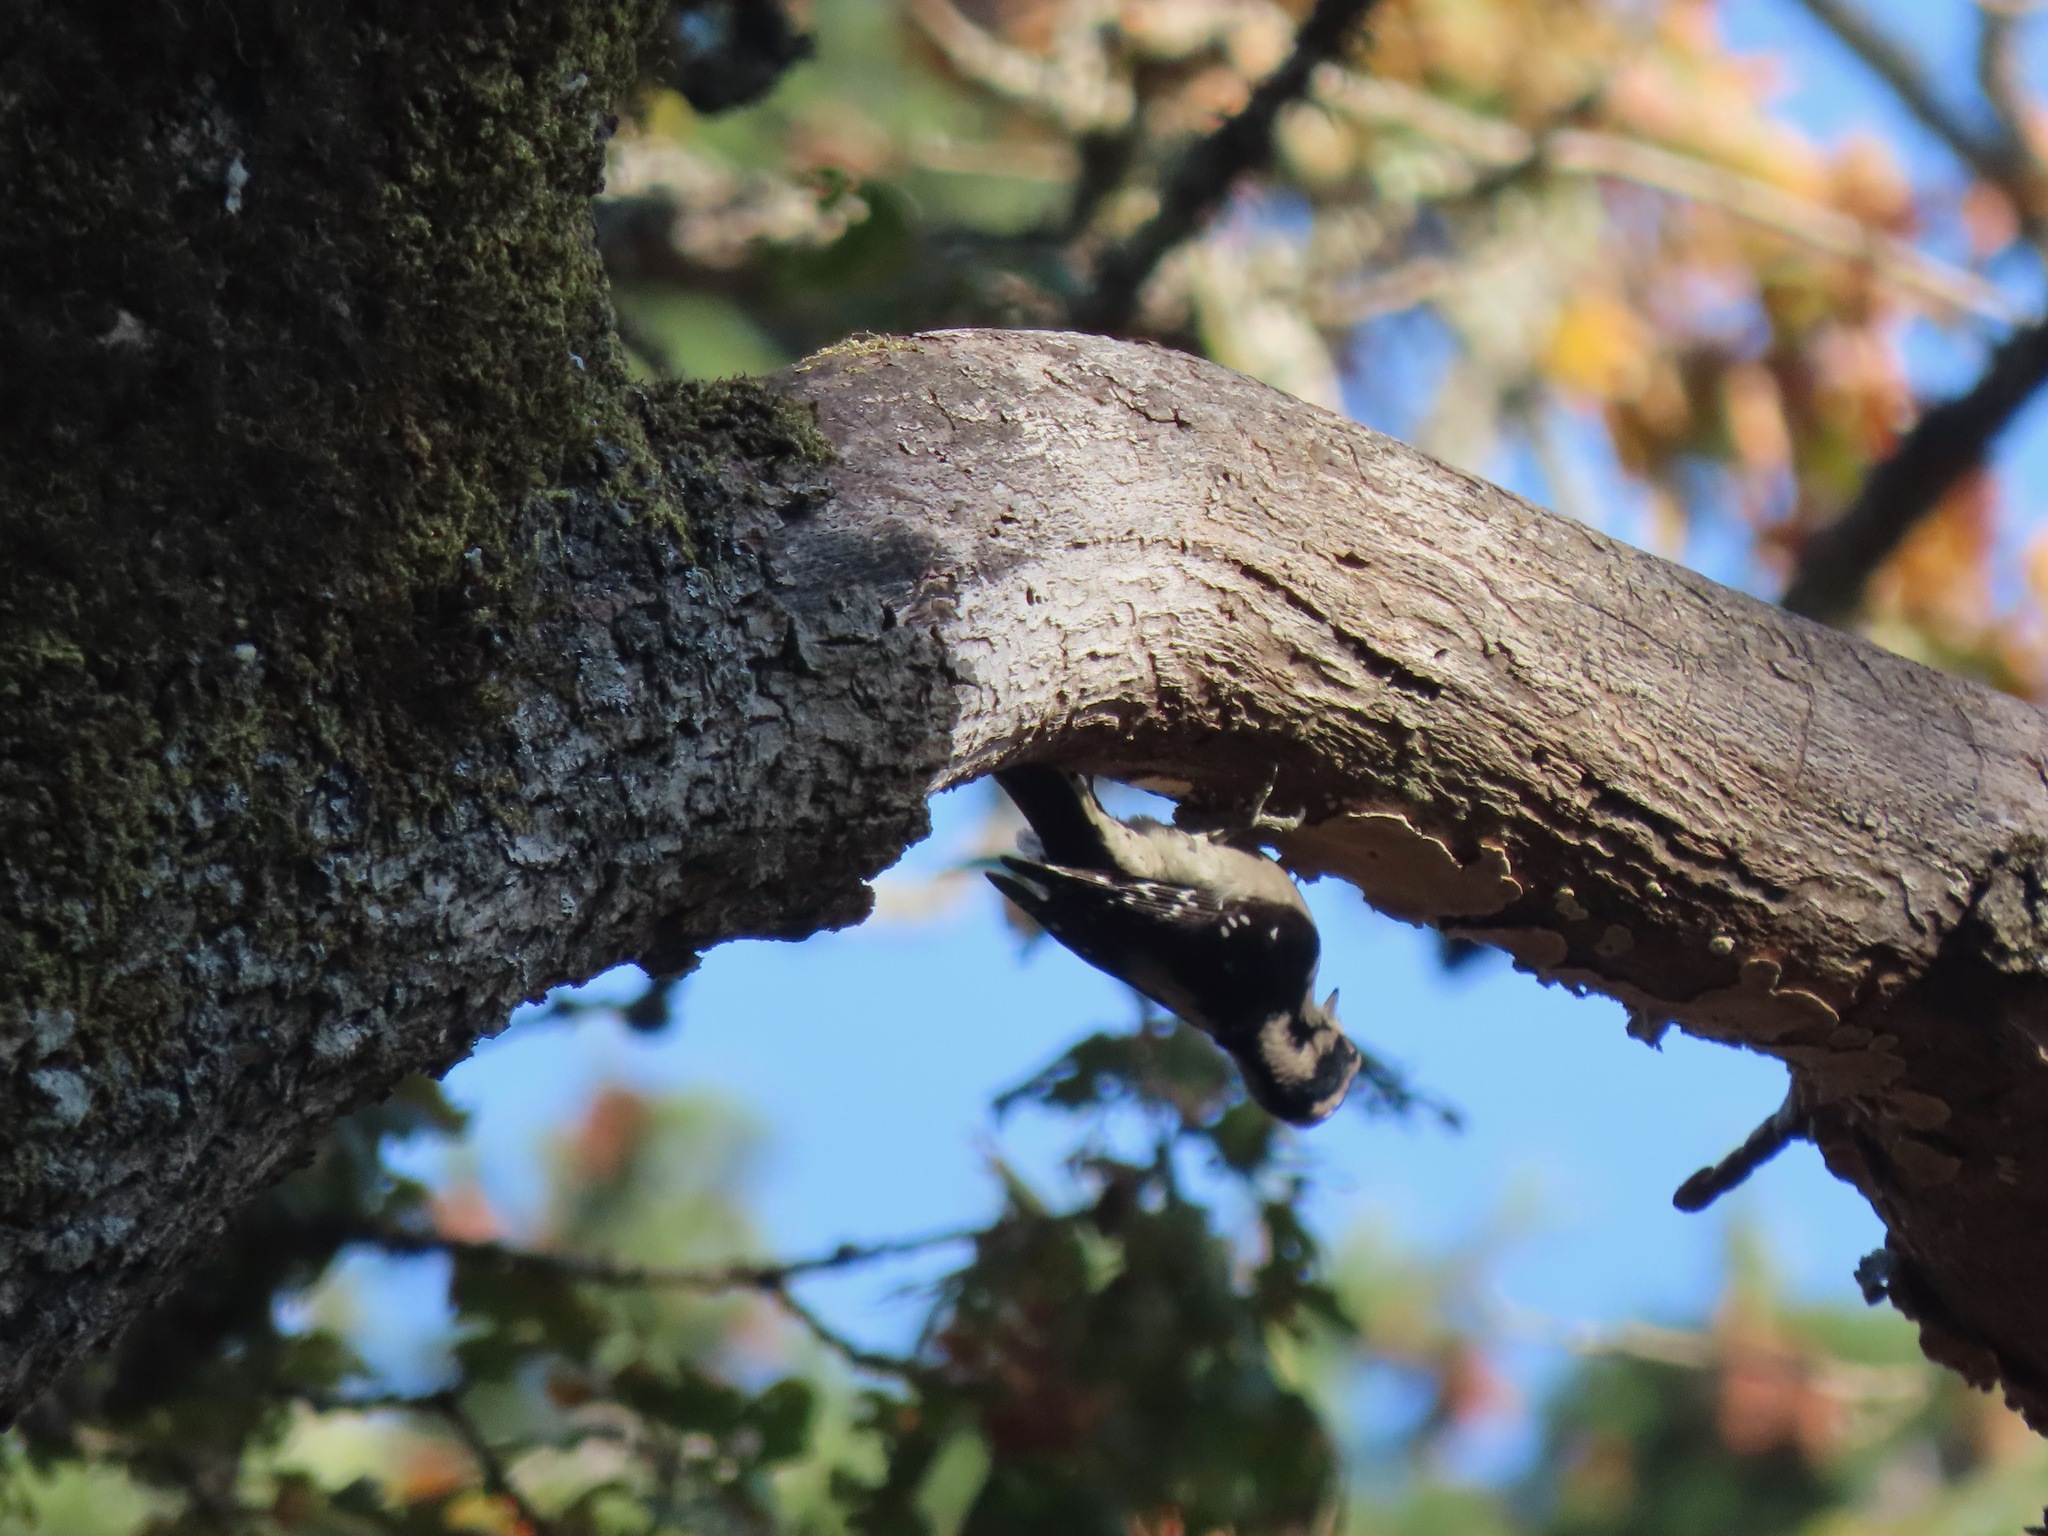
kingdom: Animalia
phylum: Chordata
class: Aves
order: Piciformes
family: Picidae
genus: Dryobates
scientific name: Dryobates pubescens
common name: Downy woodpecker
